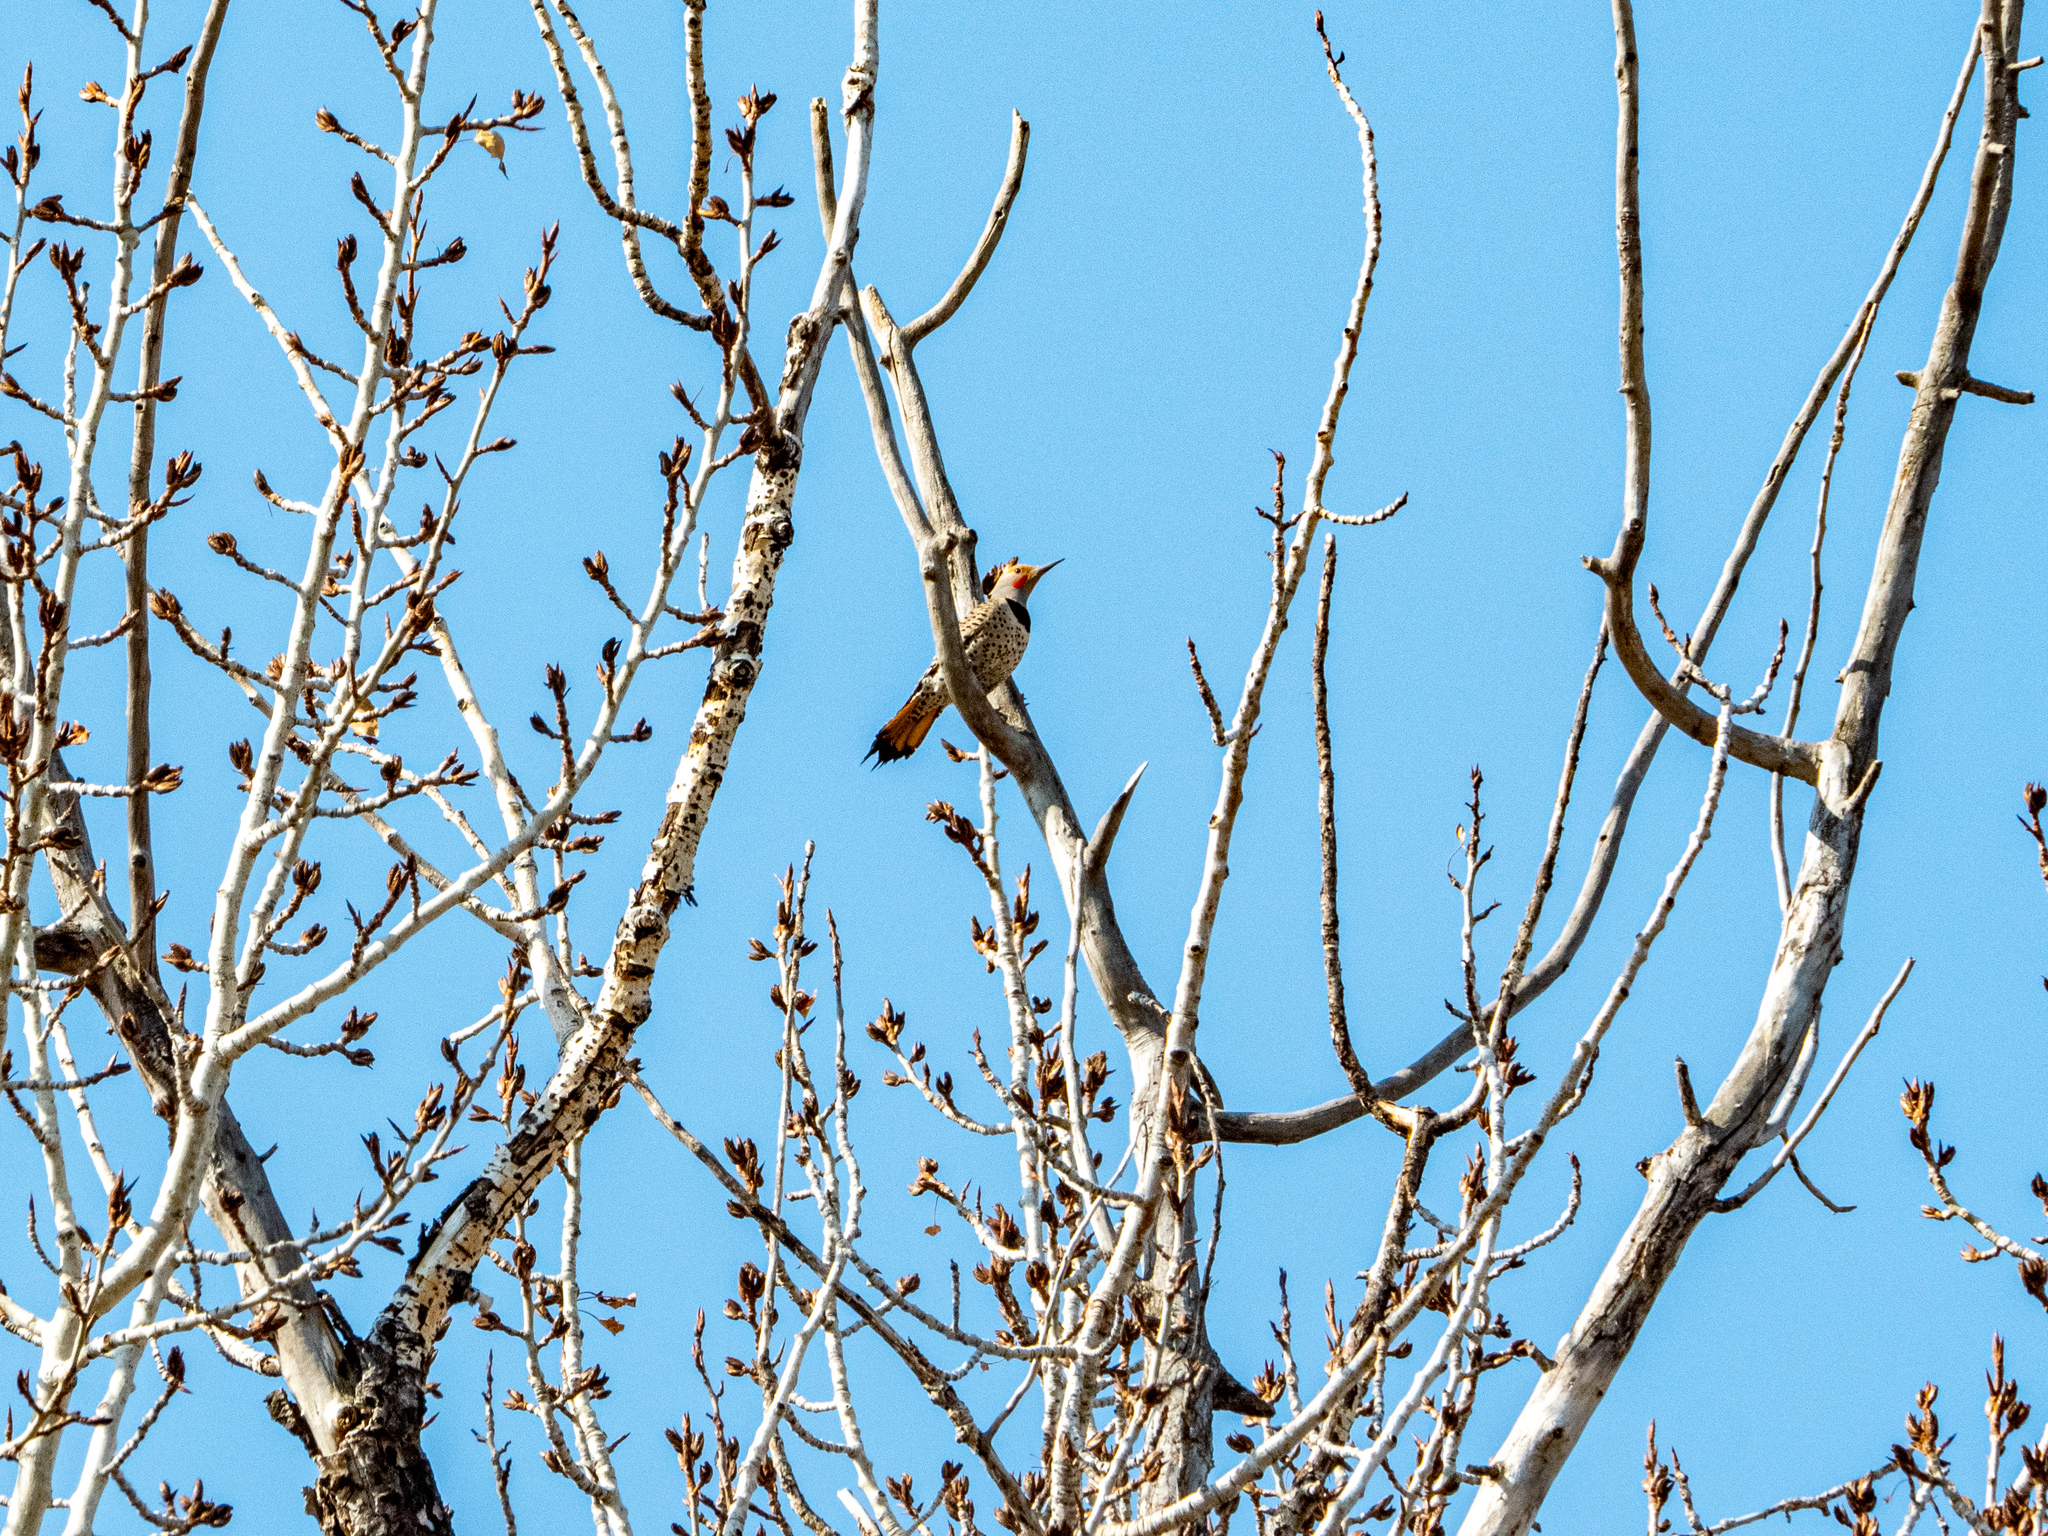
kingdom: Animalia
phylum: Chordata
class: Aves
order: Piciformes
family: Picidae
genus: Colaptes
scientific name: Colaptes auratus
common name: Northern flicker
